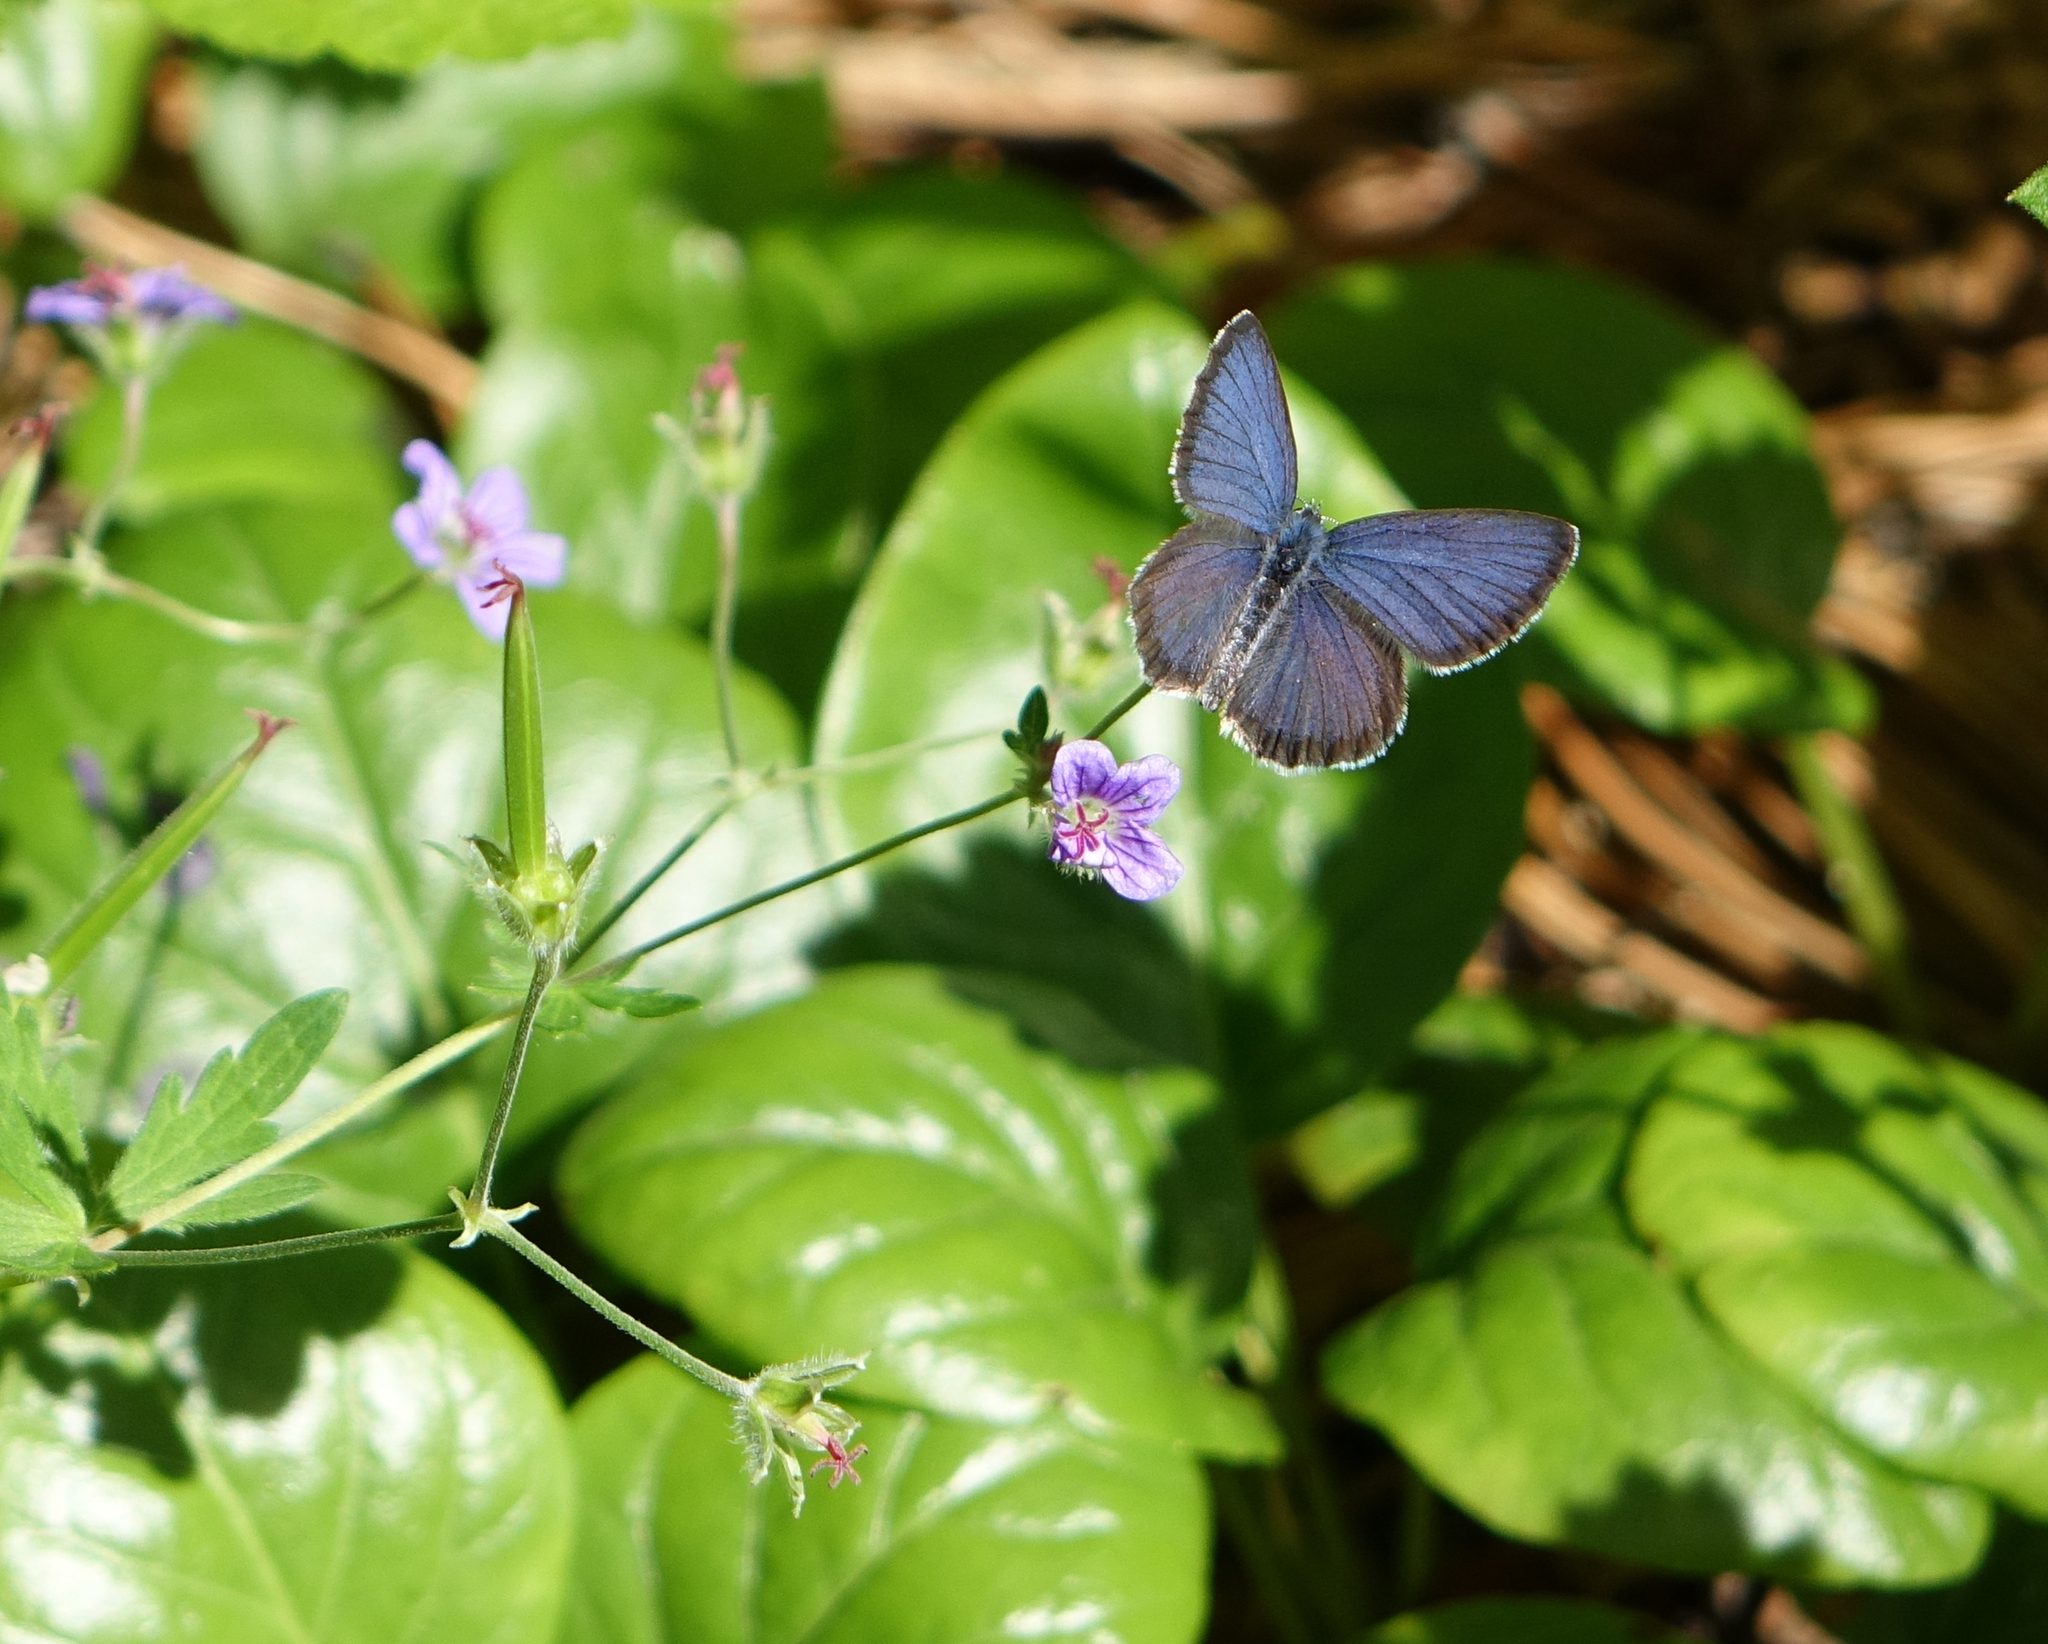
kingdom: Plantae
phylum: Tracheophyta
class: Magnoliopsida
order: Geraniales
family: Geraniaceae
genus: Geranium
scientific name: Geranium pseudosibiricum
